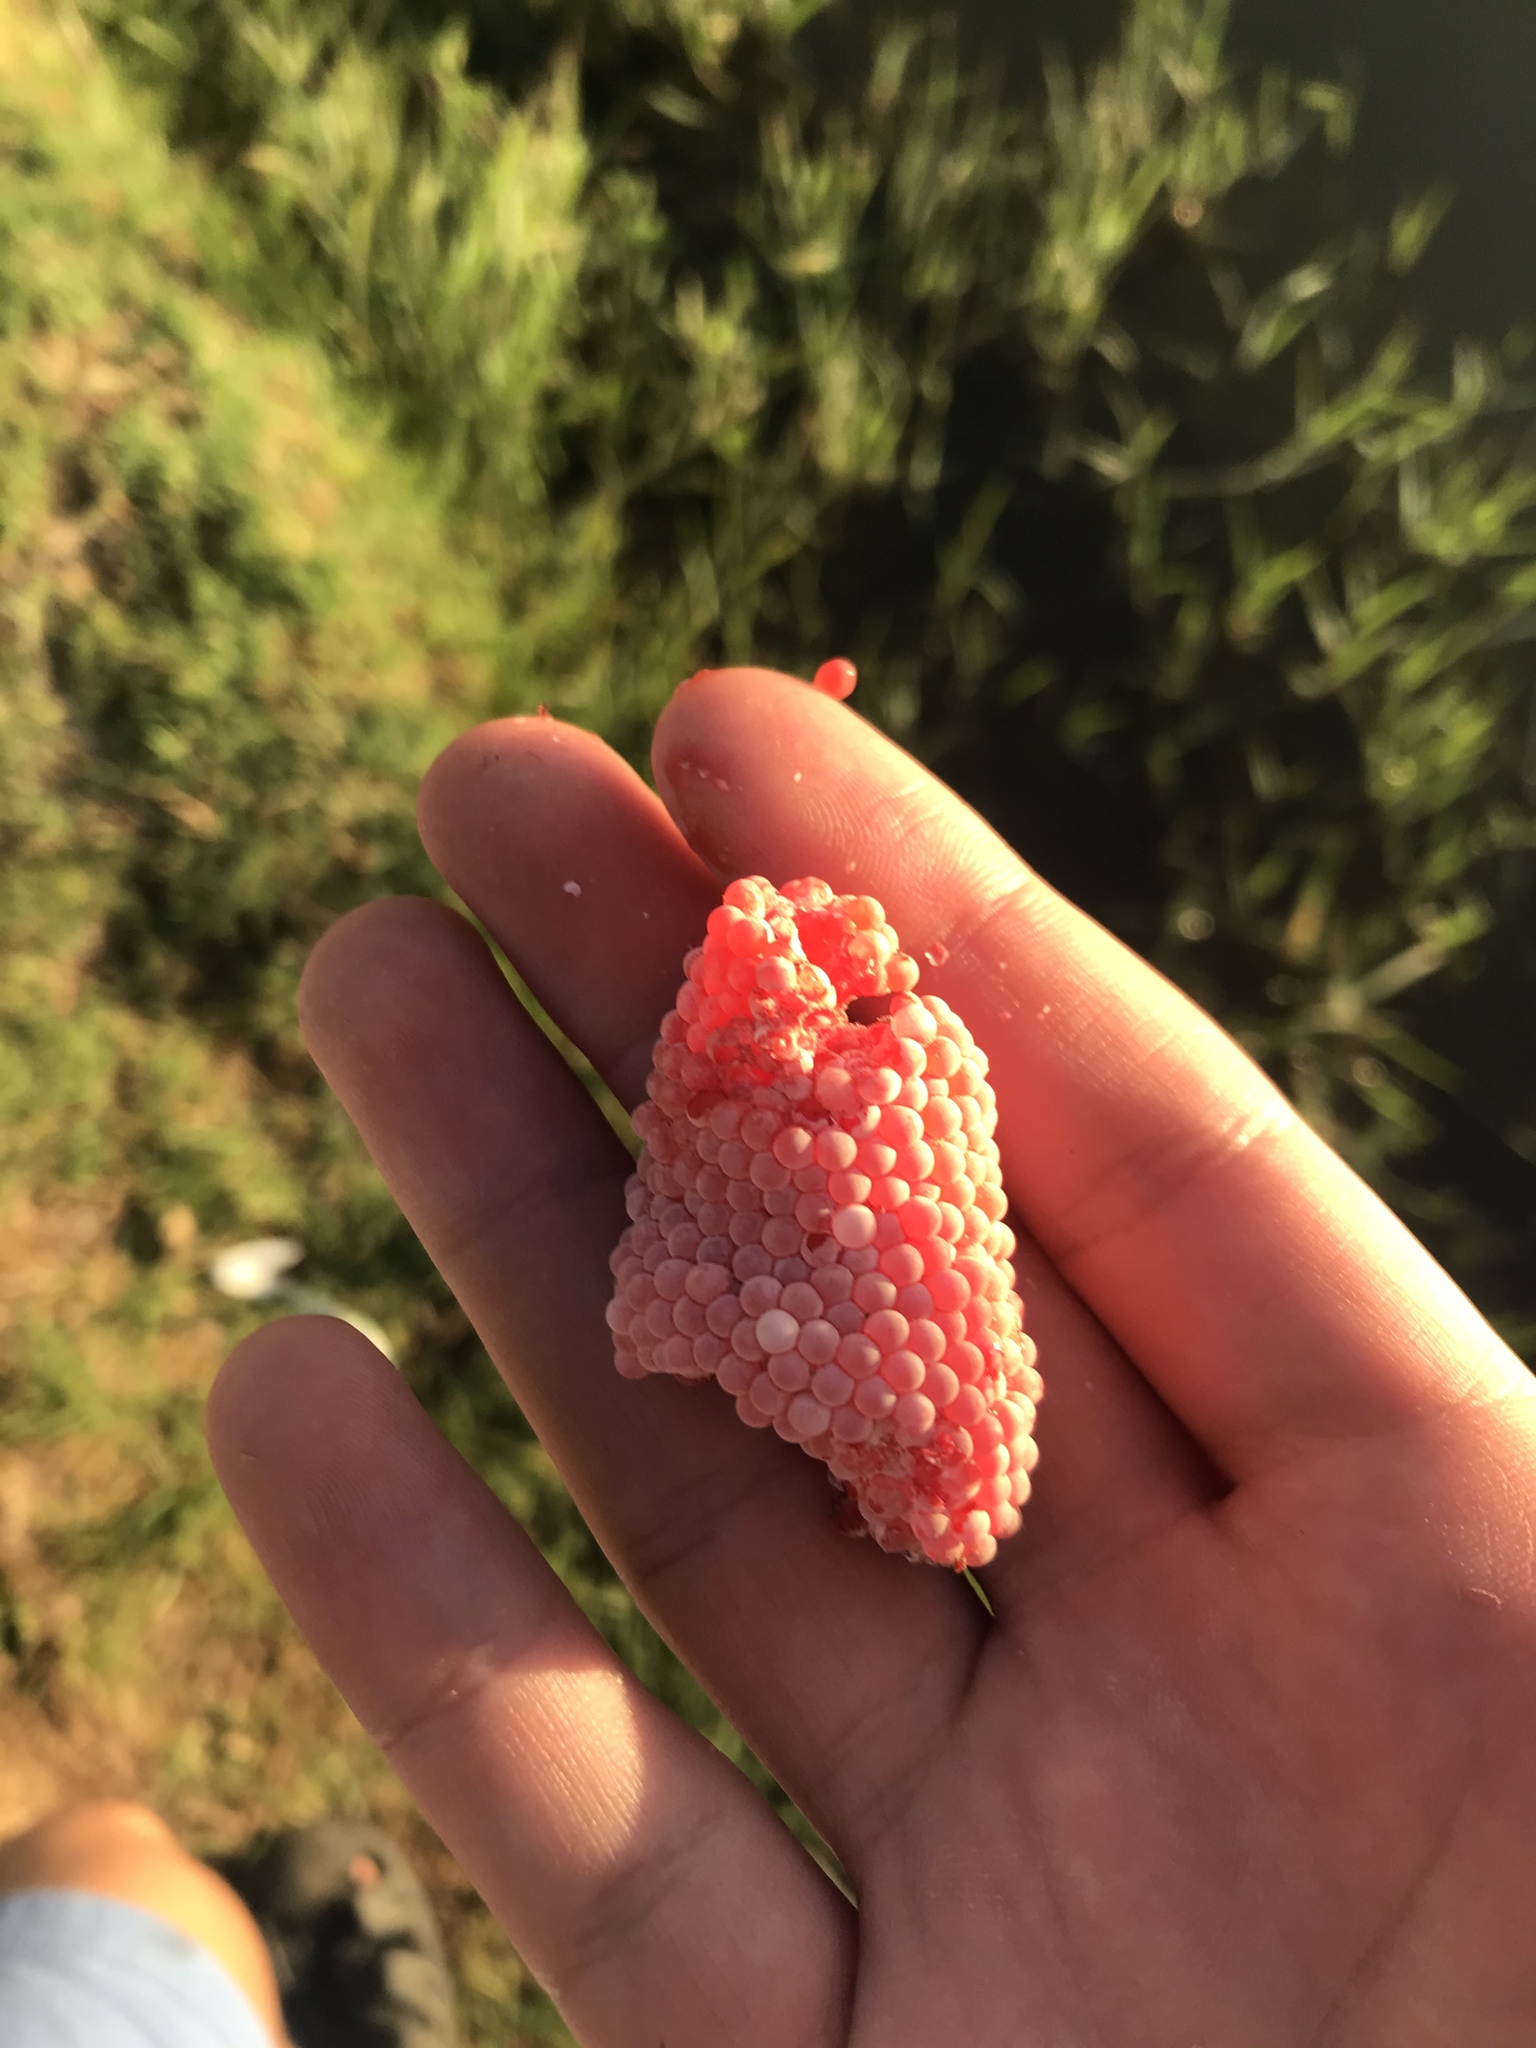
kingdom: Animalia
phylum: Mollusca
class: Gastropoda
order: Architaenioglossa
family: Ampullariidae
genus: Pomacea
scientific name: Pomacea canaliculata
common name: Channeled applesnail
